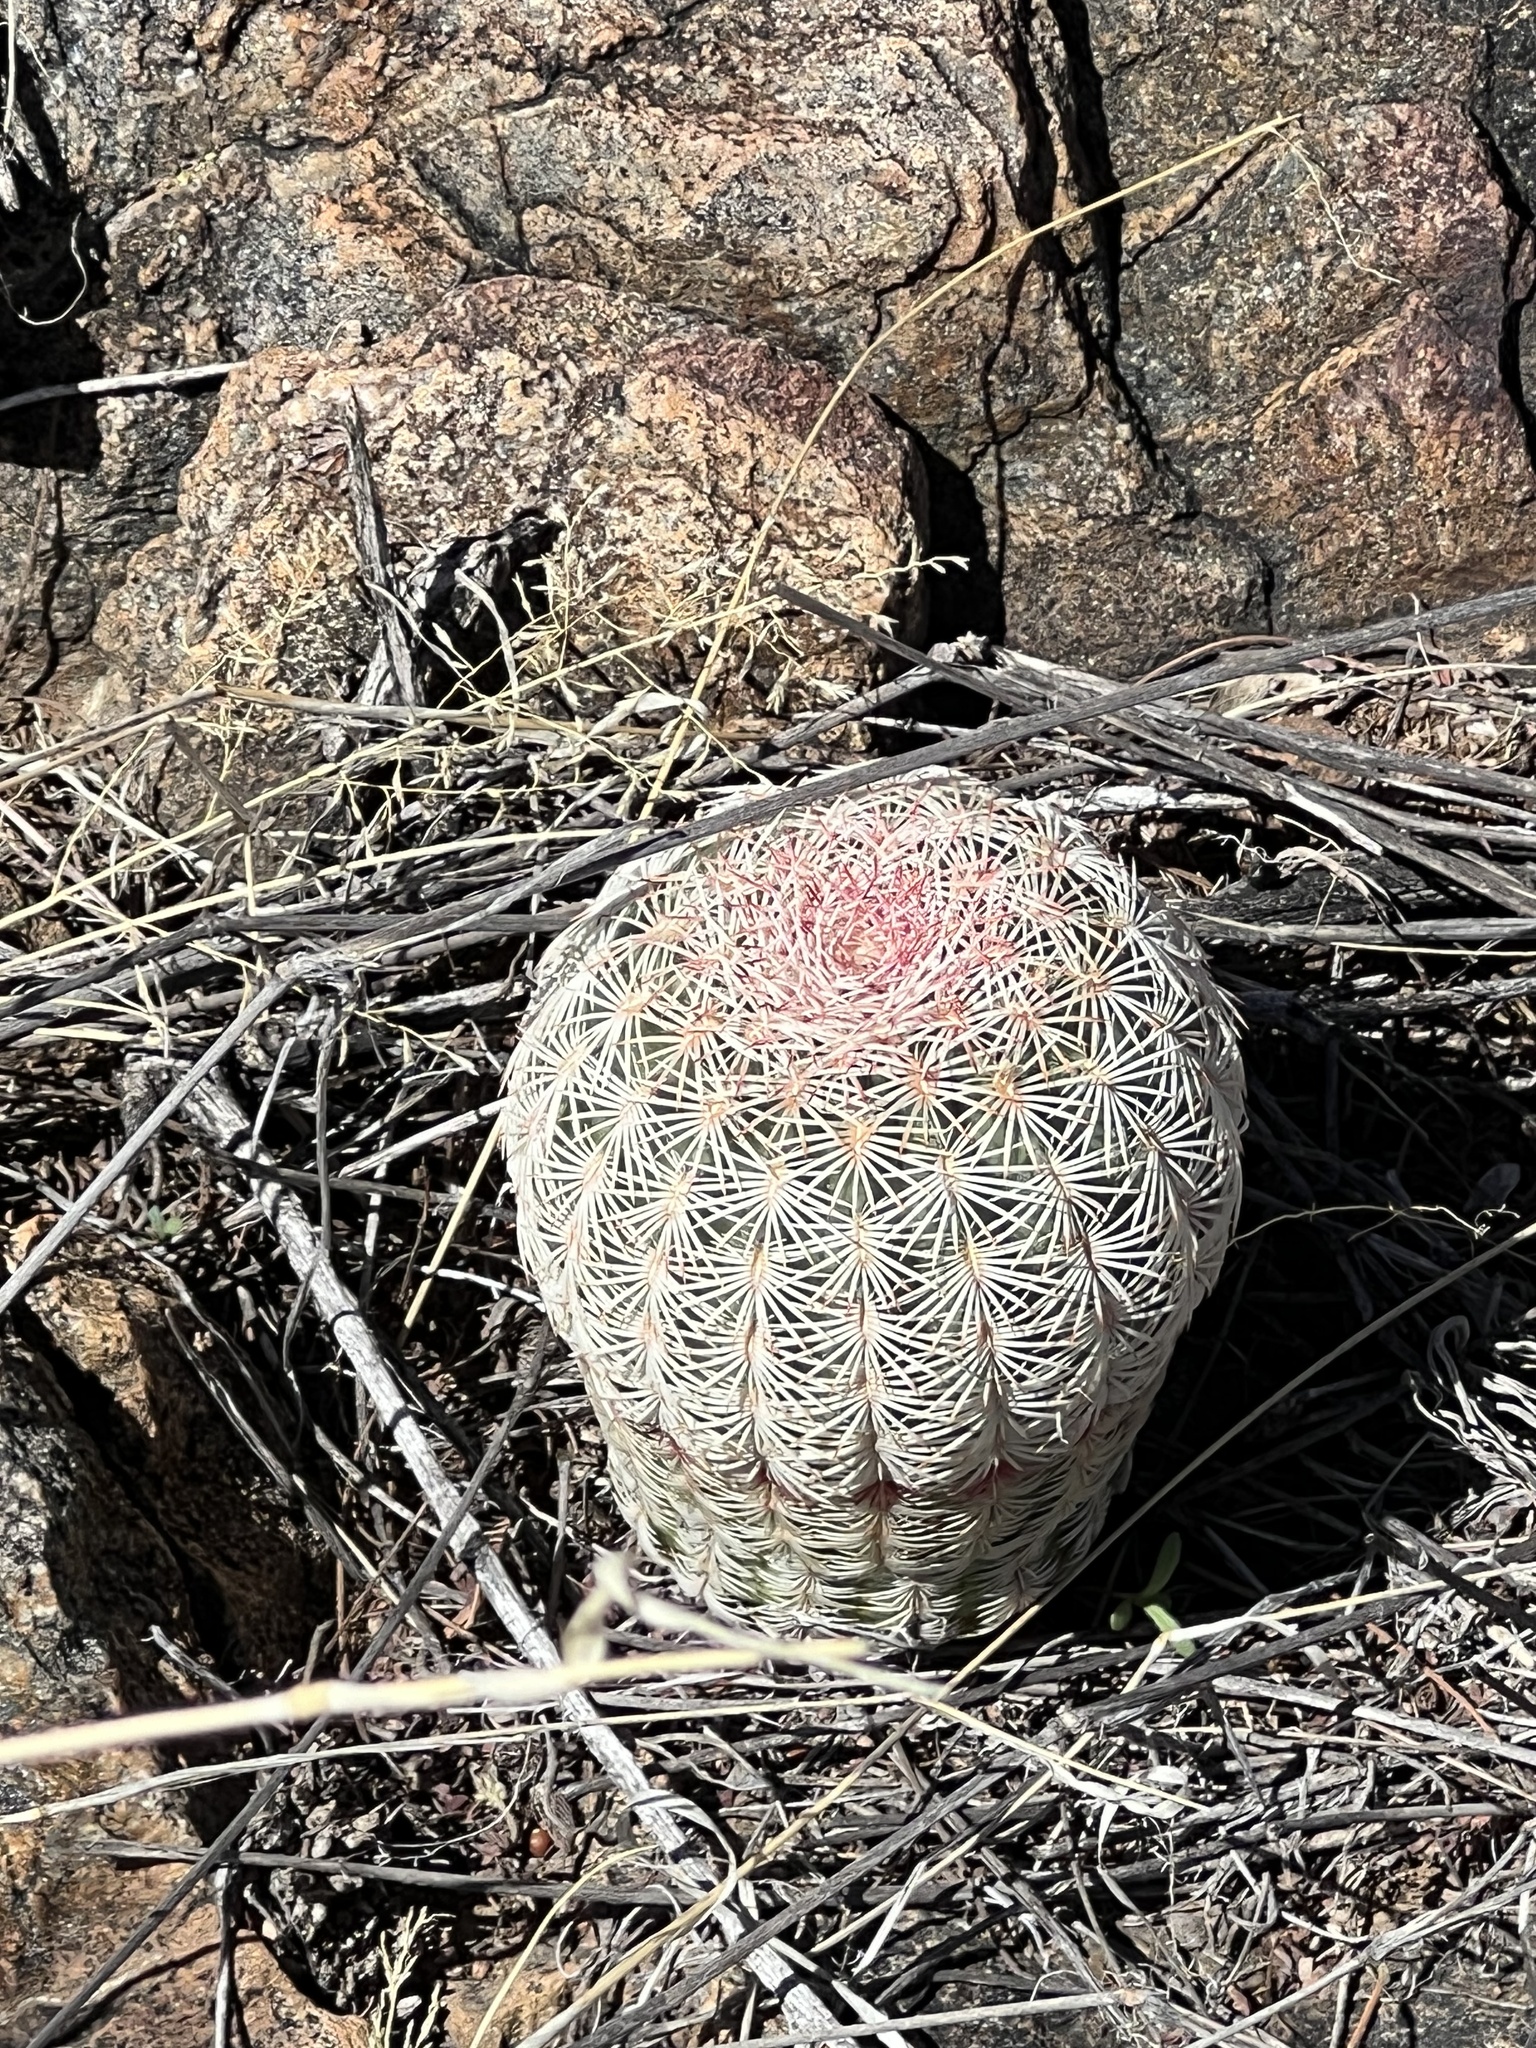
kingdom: Plantae
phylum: Tracheophyta
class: Magnoliopsida
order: Caryophyllales
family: Cactaceae
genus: Echinocereus
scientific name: Echinocereus rigidissimus
